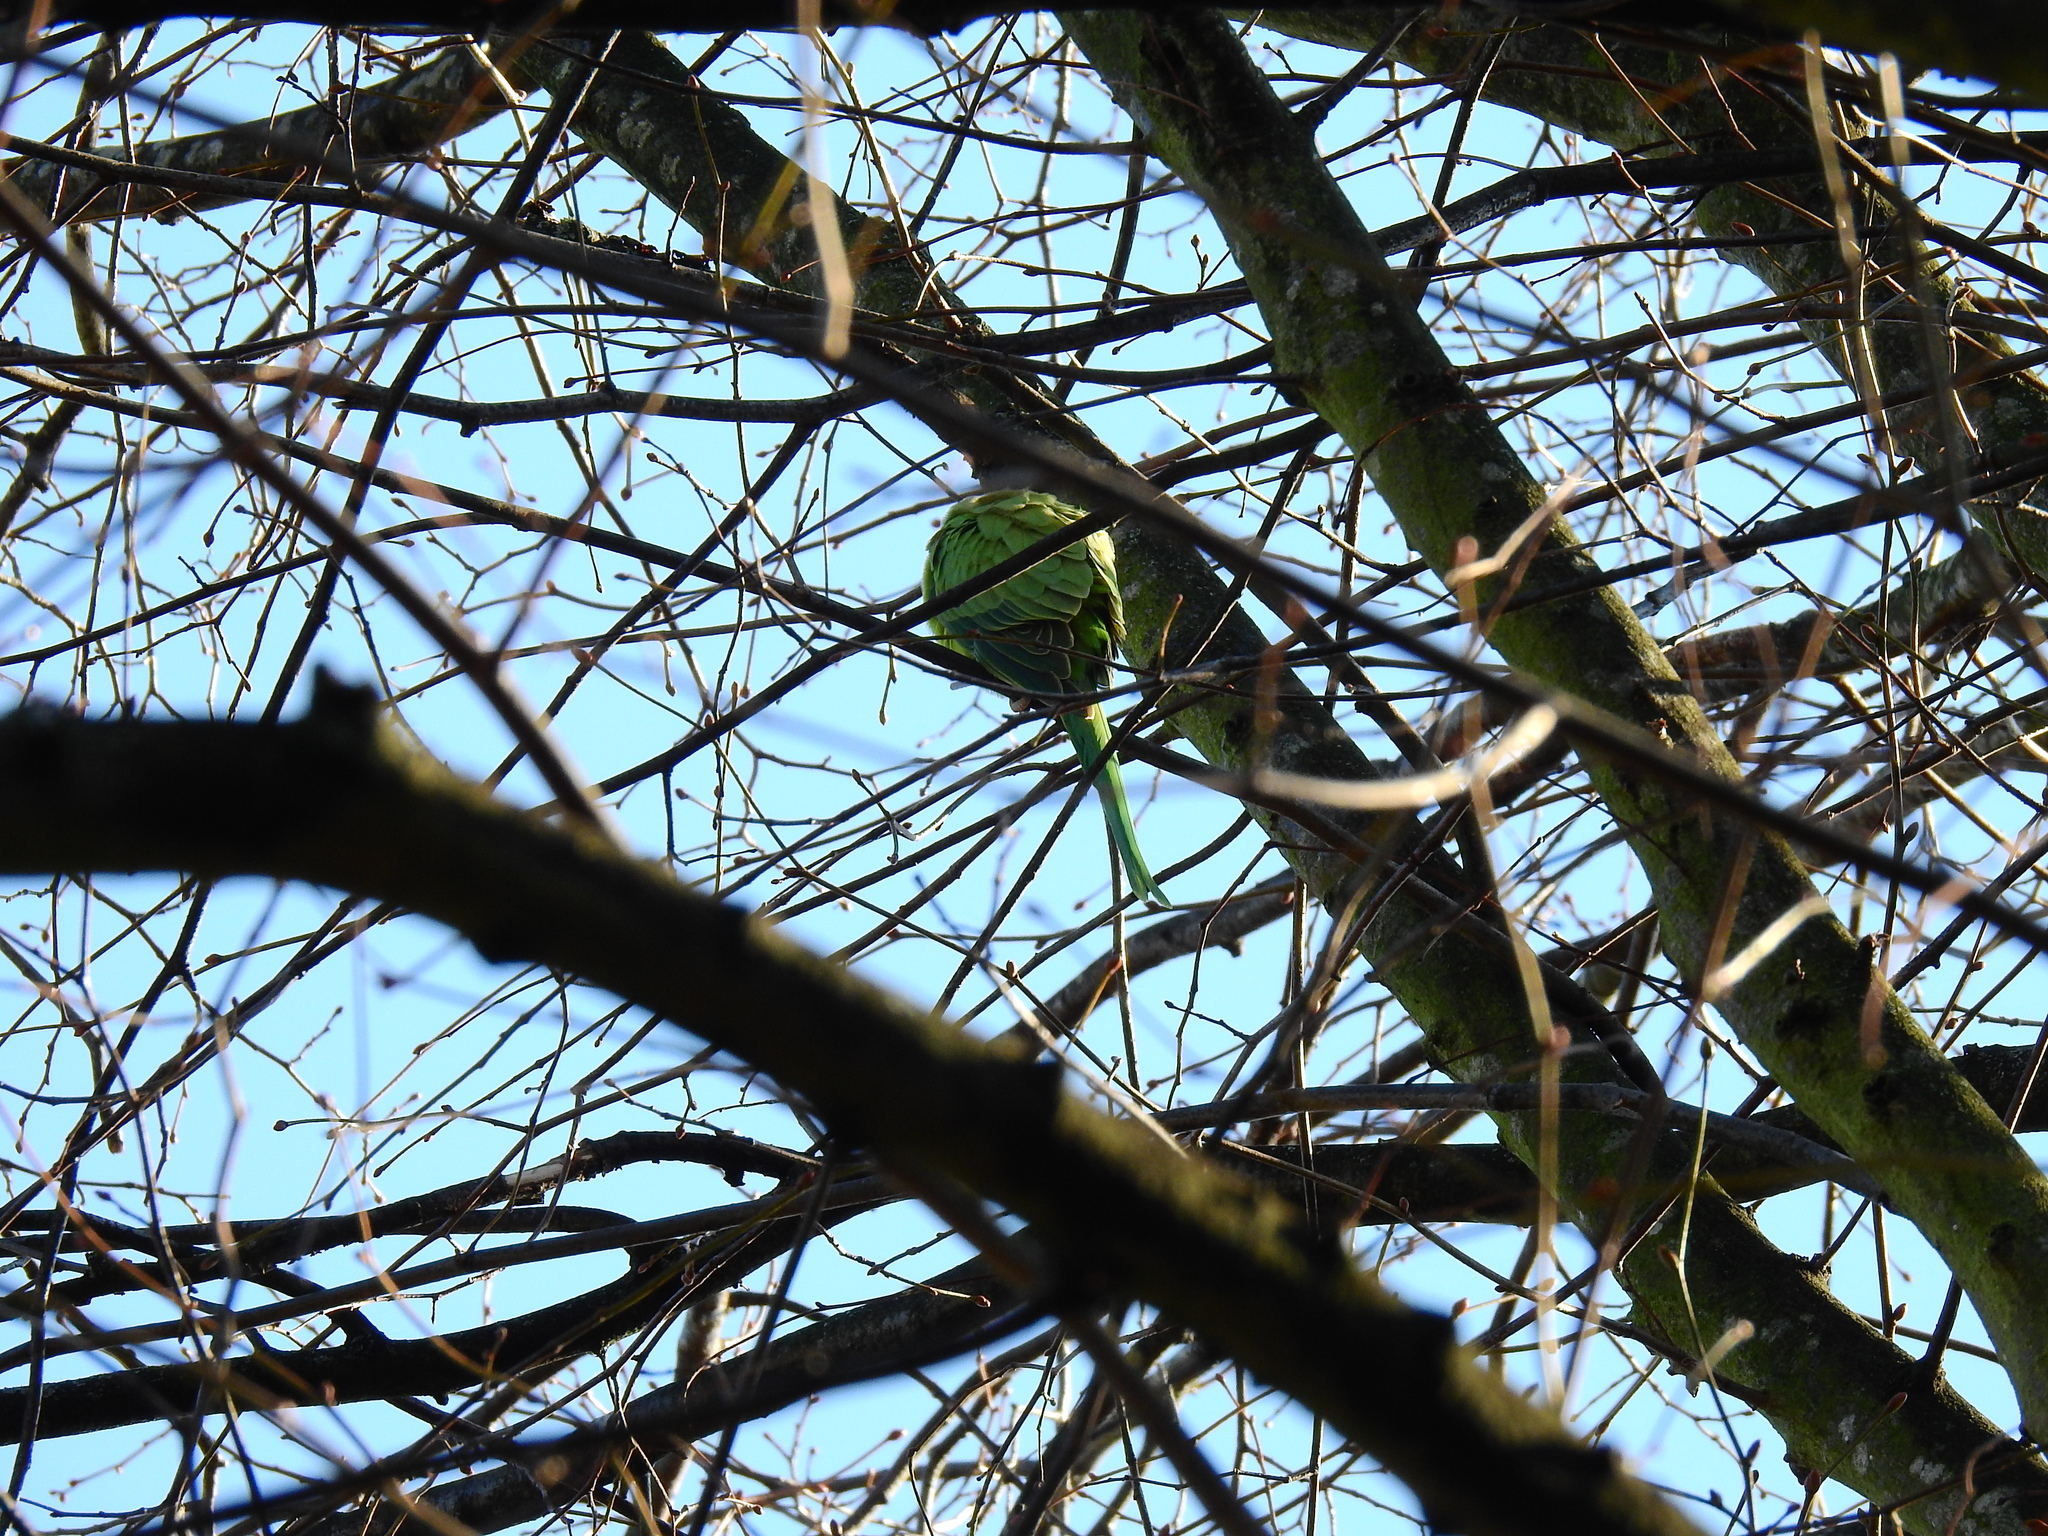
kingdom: Animalia
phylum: Chordata
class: Aves
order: Psittaciformes
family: Psittacidae
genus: Psittacula
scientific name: Psittacula krameri
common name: Rose-ringed parakeet
